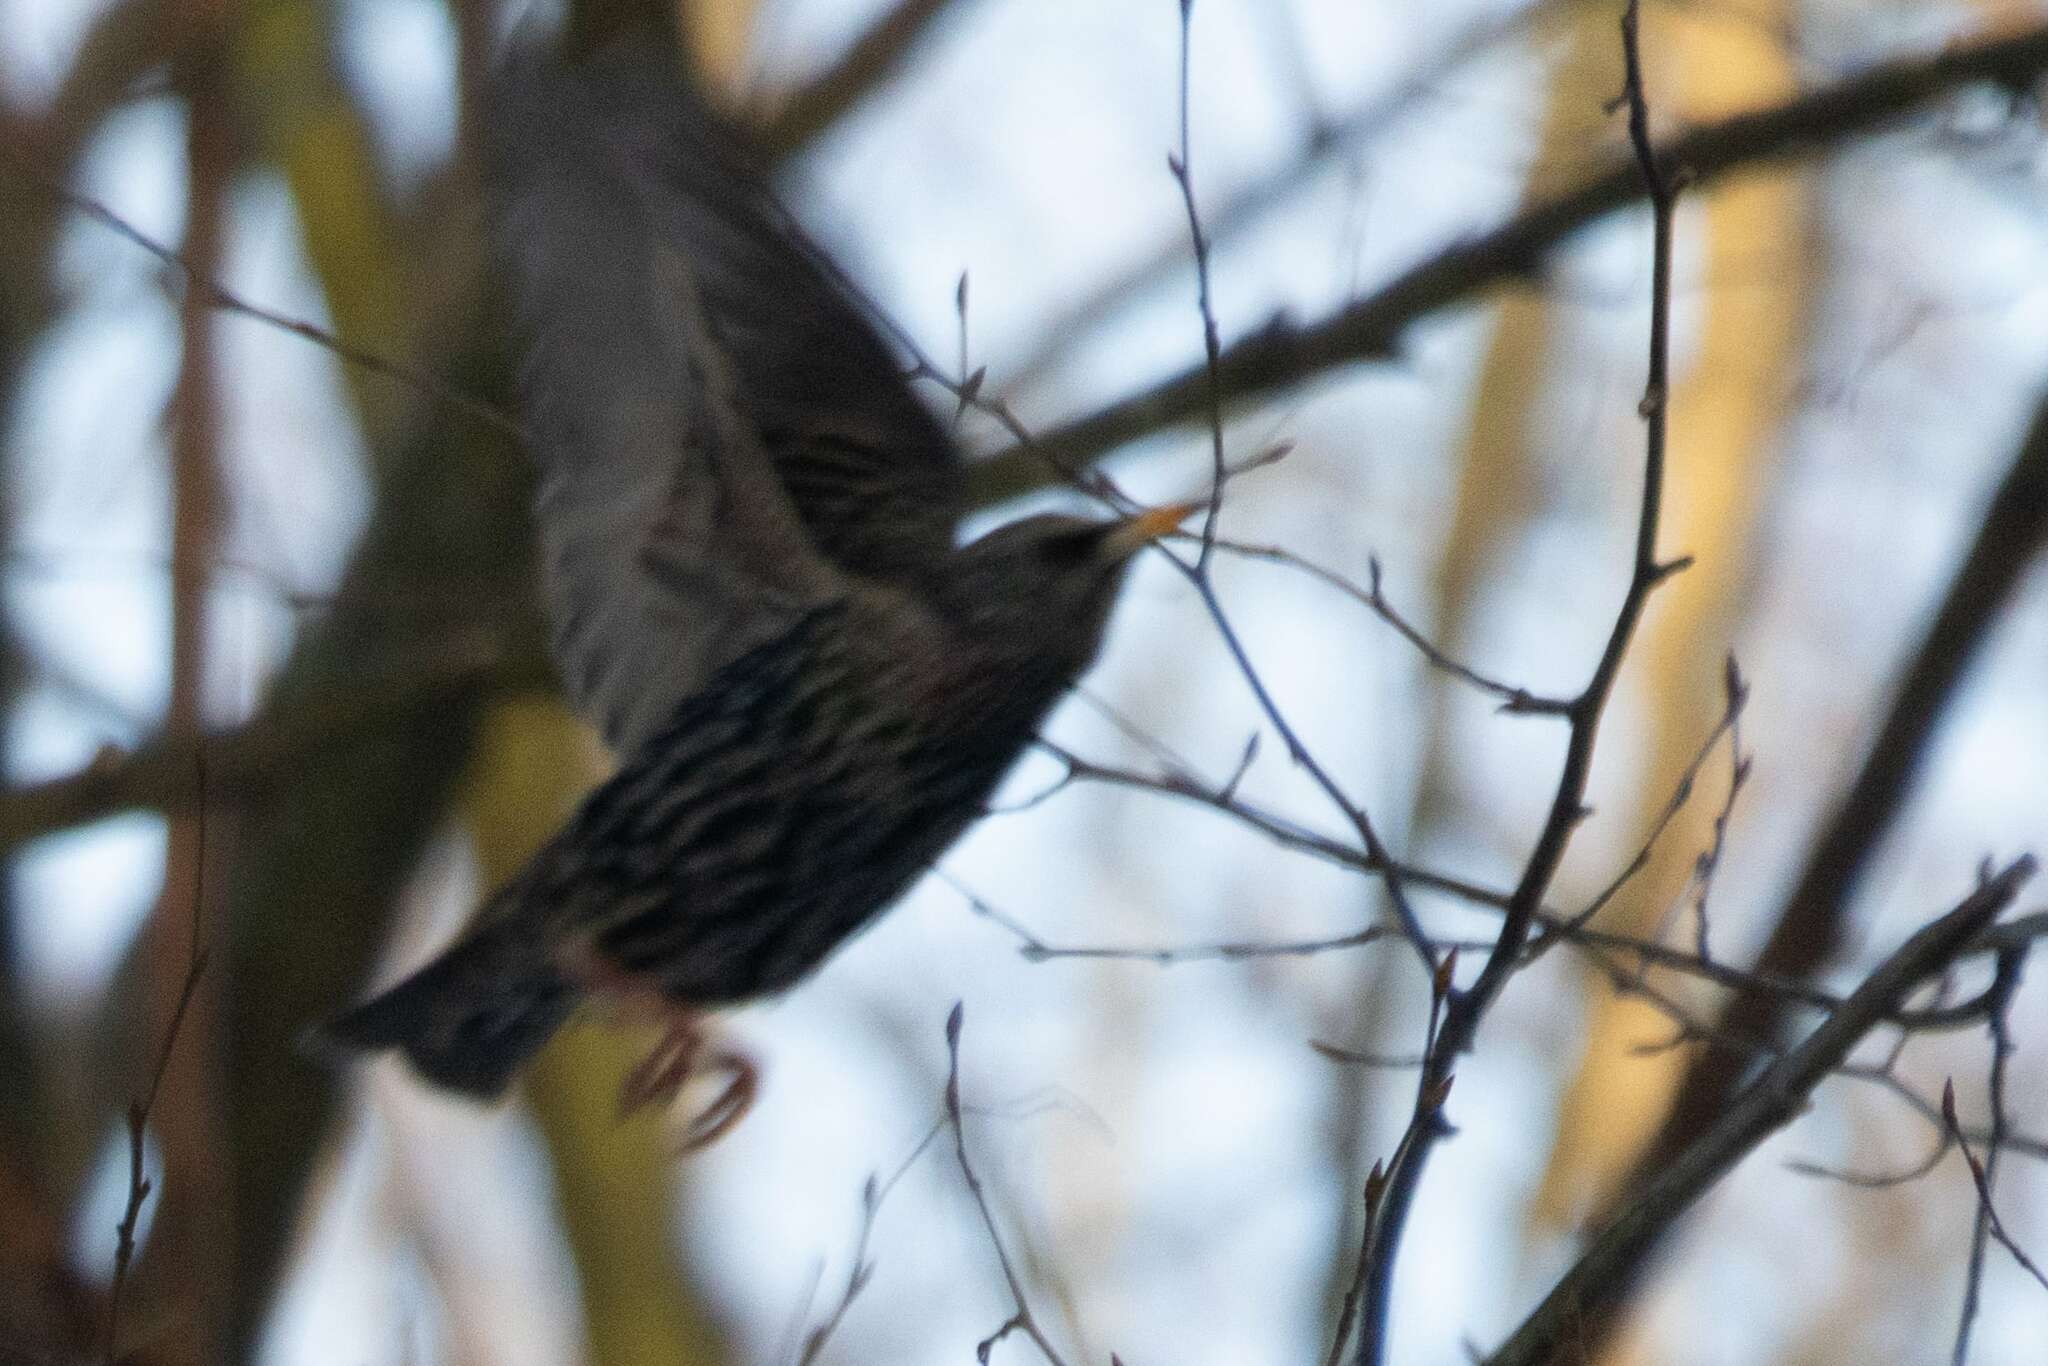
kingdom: Animalia
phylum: Chordata
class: Aves
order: Passeriformes
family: Sturnidae
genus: Sturnus
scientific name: Sturnus vulgaris
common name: Common starling
